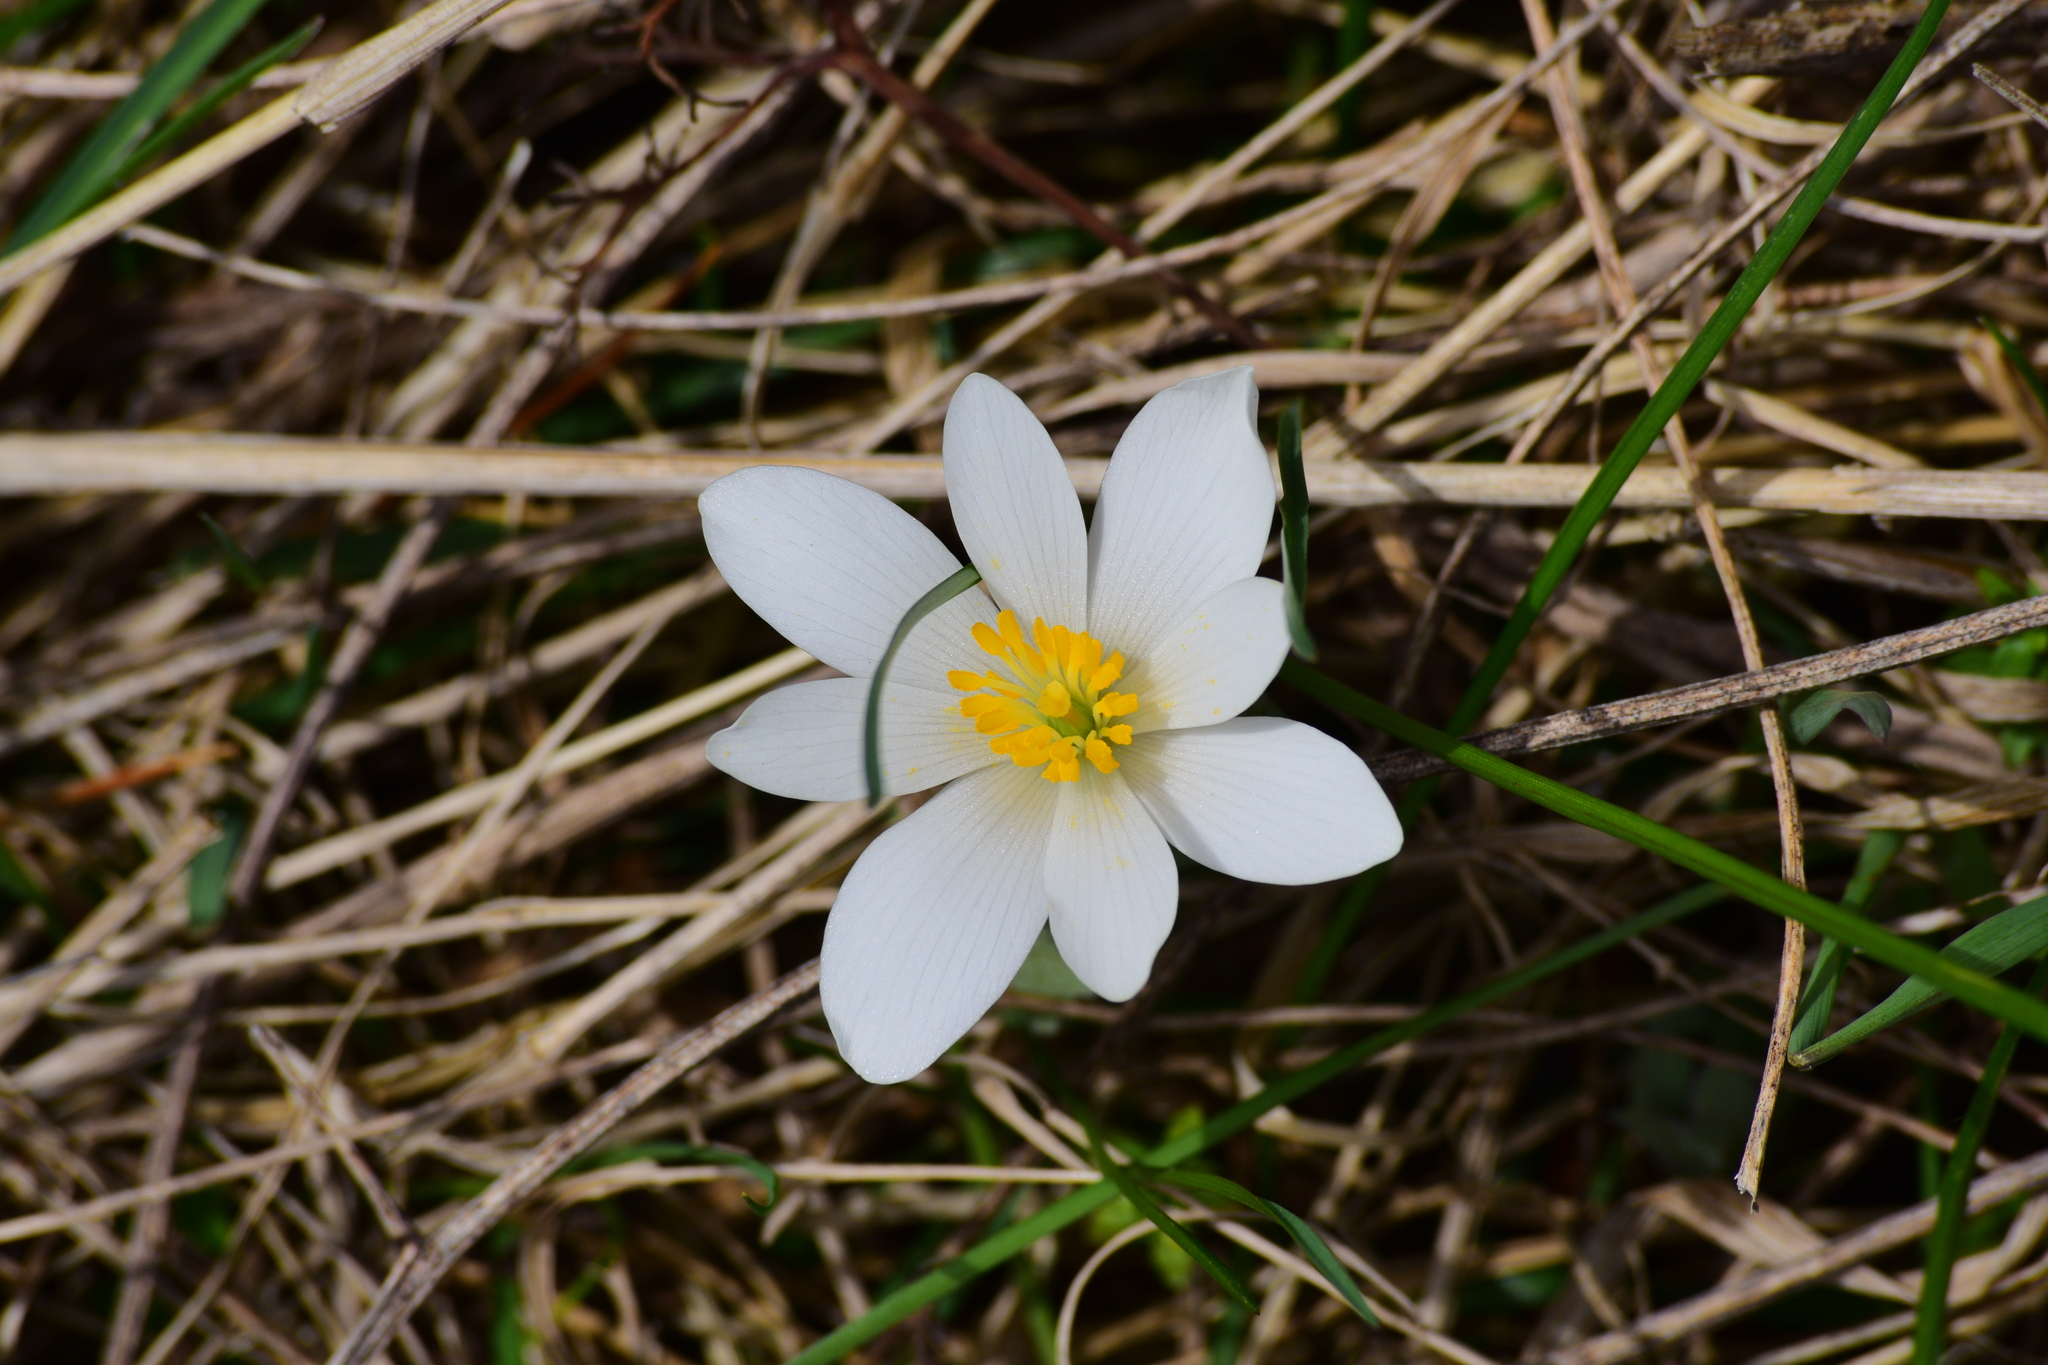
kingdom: Plantae
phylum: Tracheophyta
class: Magnoliopsida
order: Ranunculales
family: Papaveraceae
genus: Sanguinaria
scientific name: Sanguinaria canadensis
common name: Bloodroot
